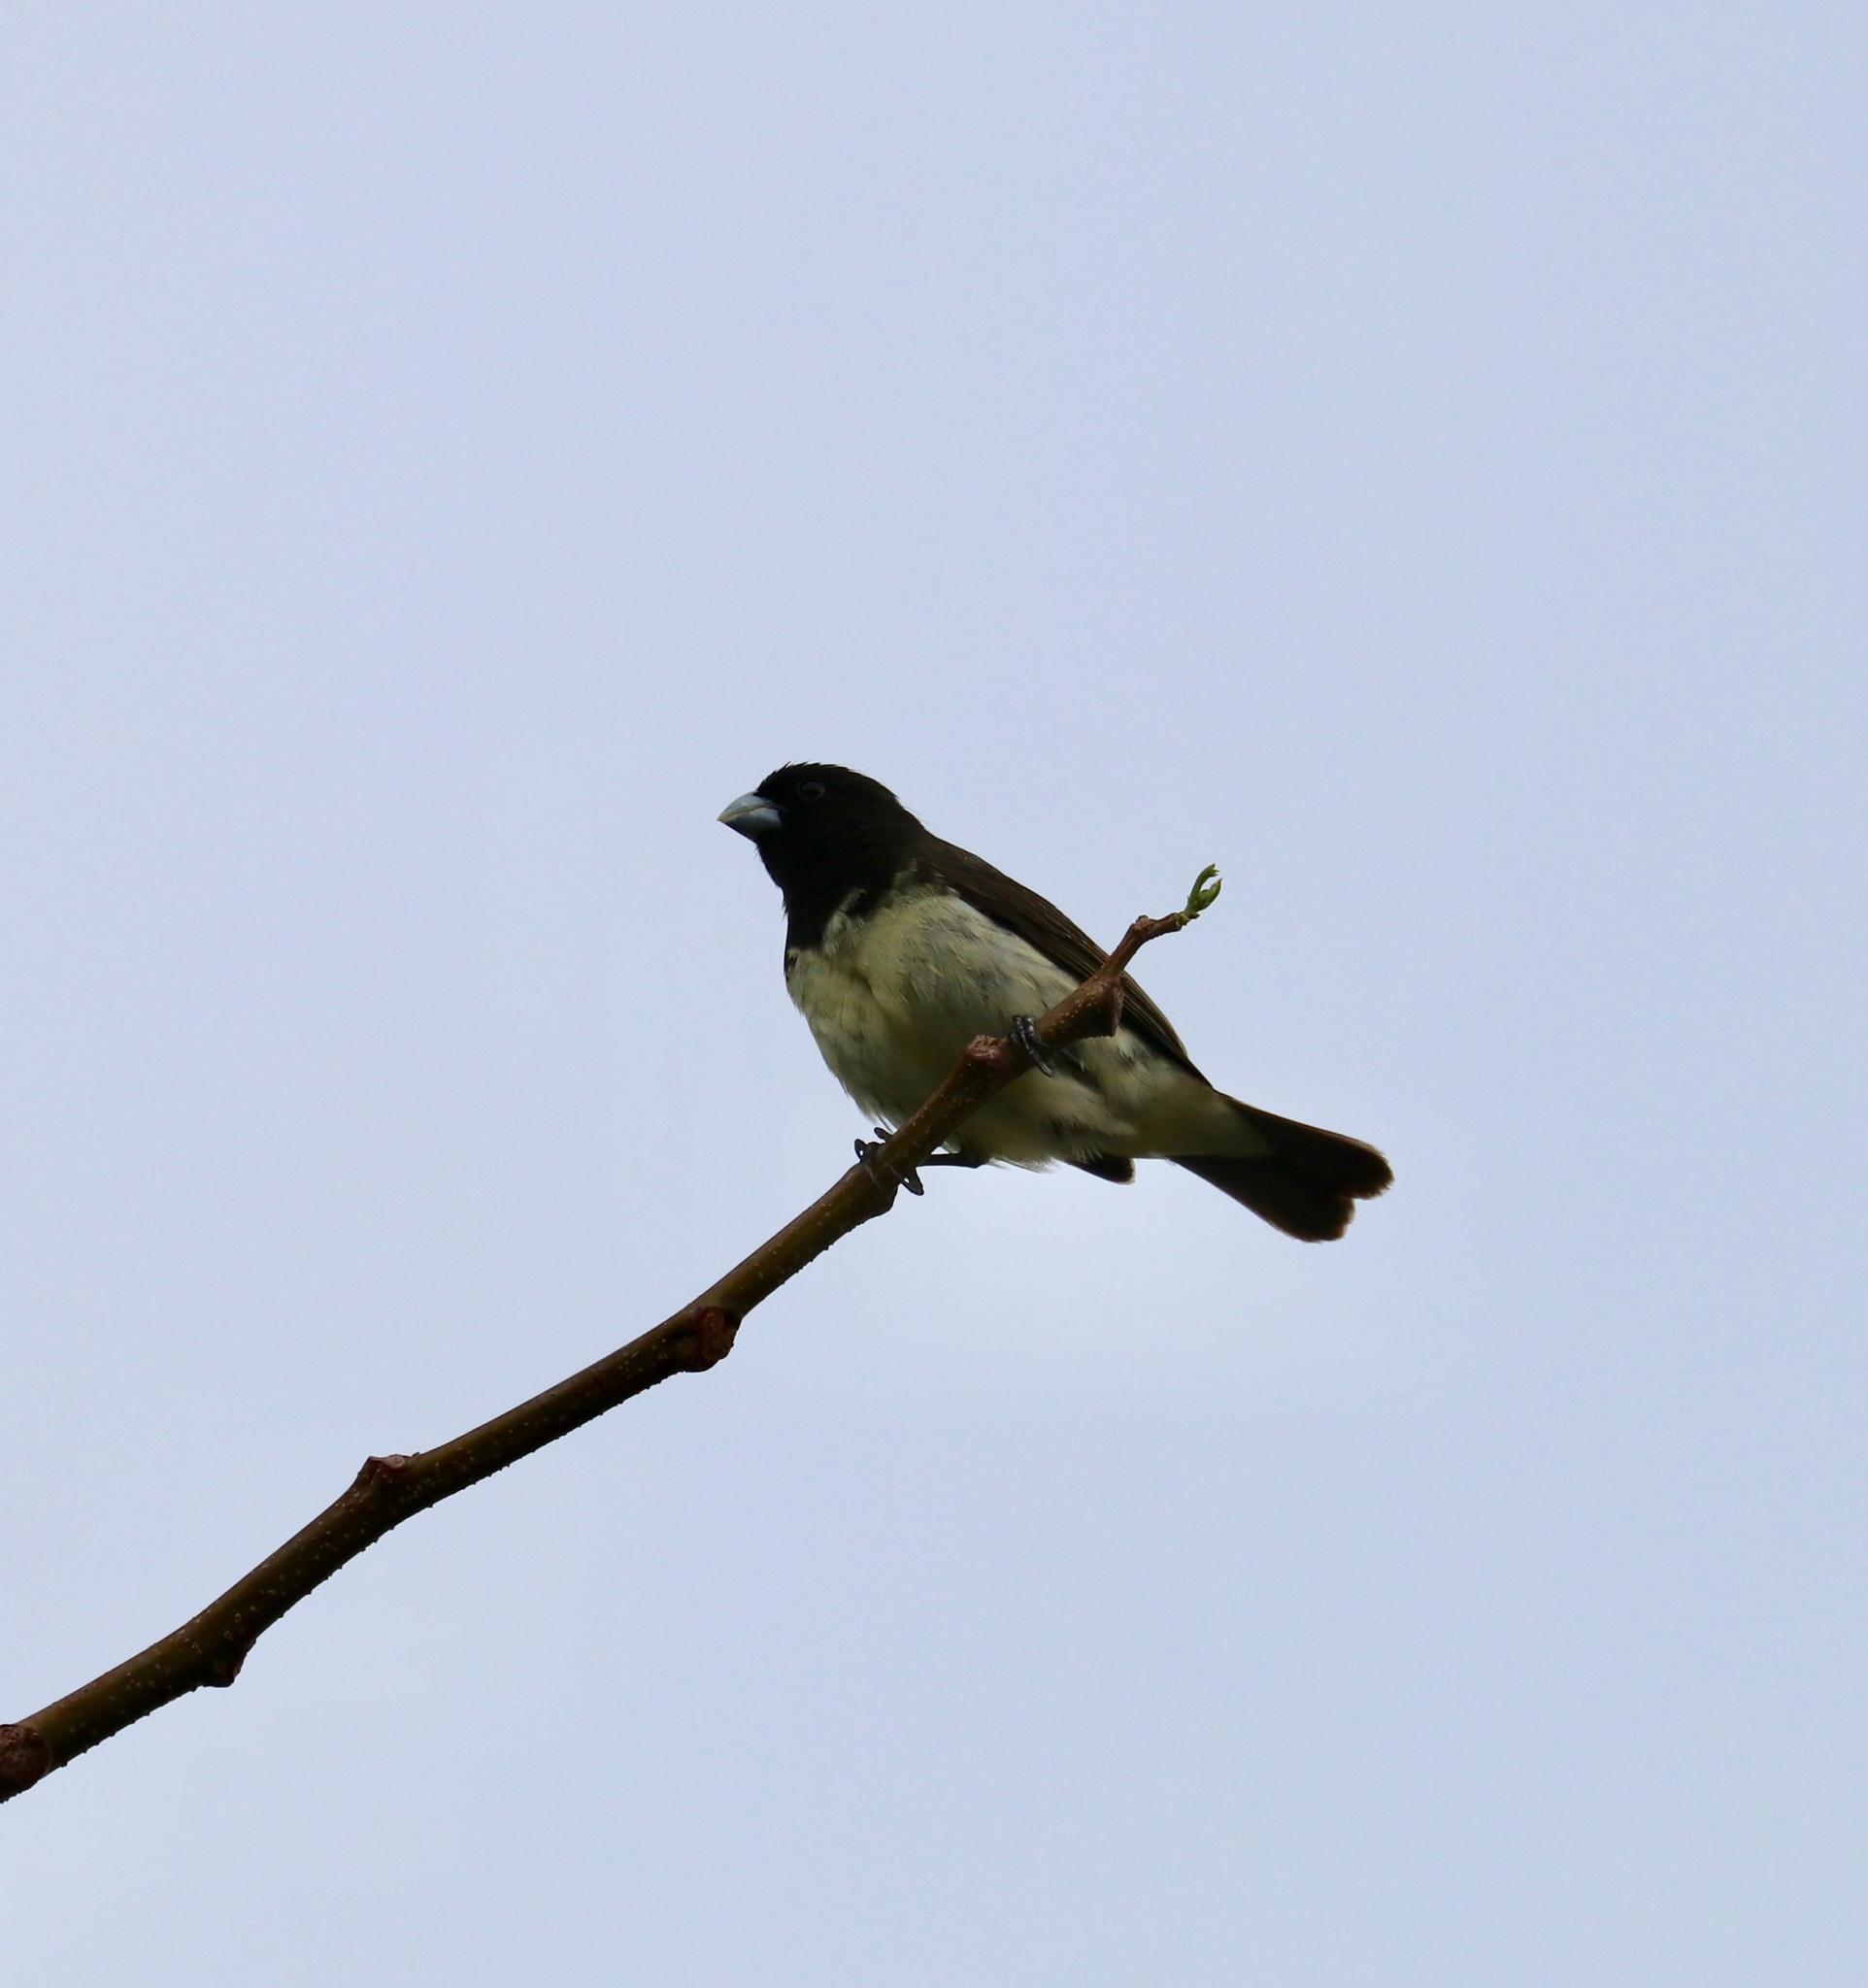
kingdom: Animalia
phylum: Chordata
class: Aves
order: Passeriformes
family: Thraupidae
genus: Sporophila
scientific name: Sporophila nigricollis
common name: Yellow-bellied seedeater
